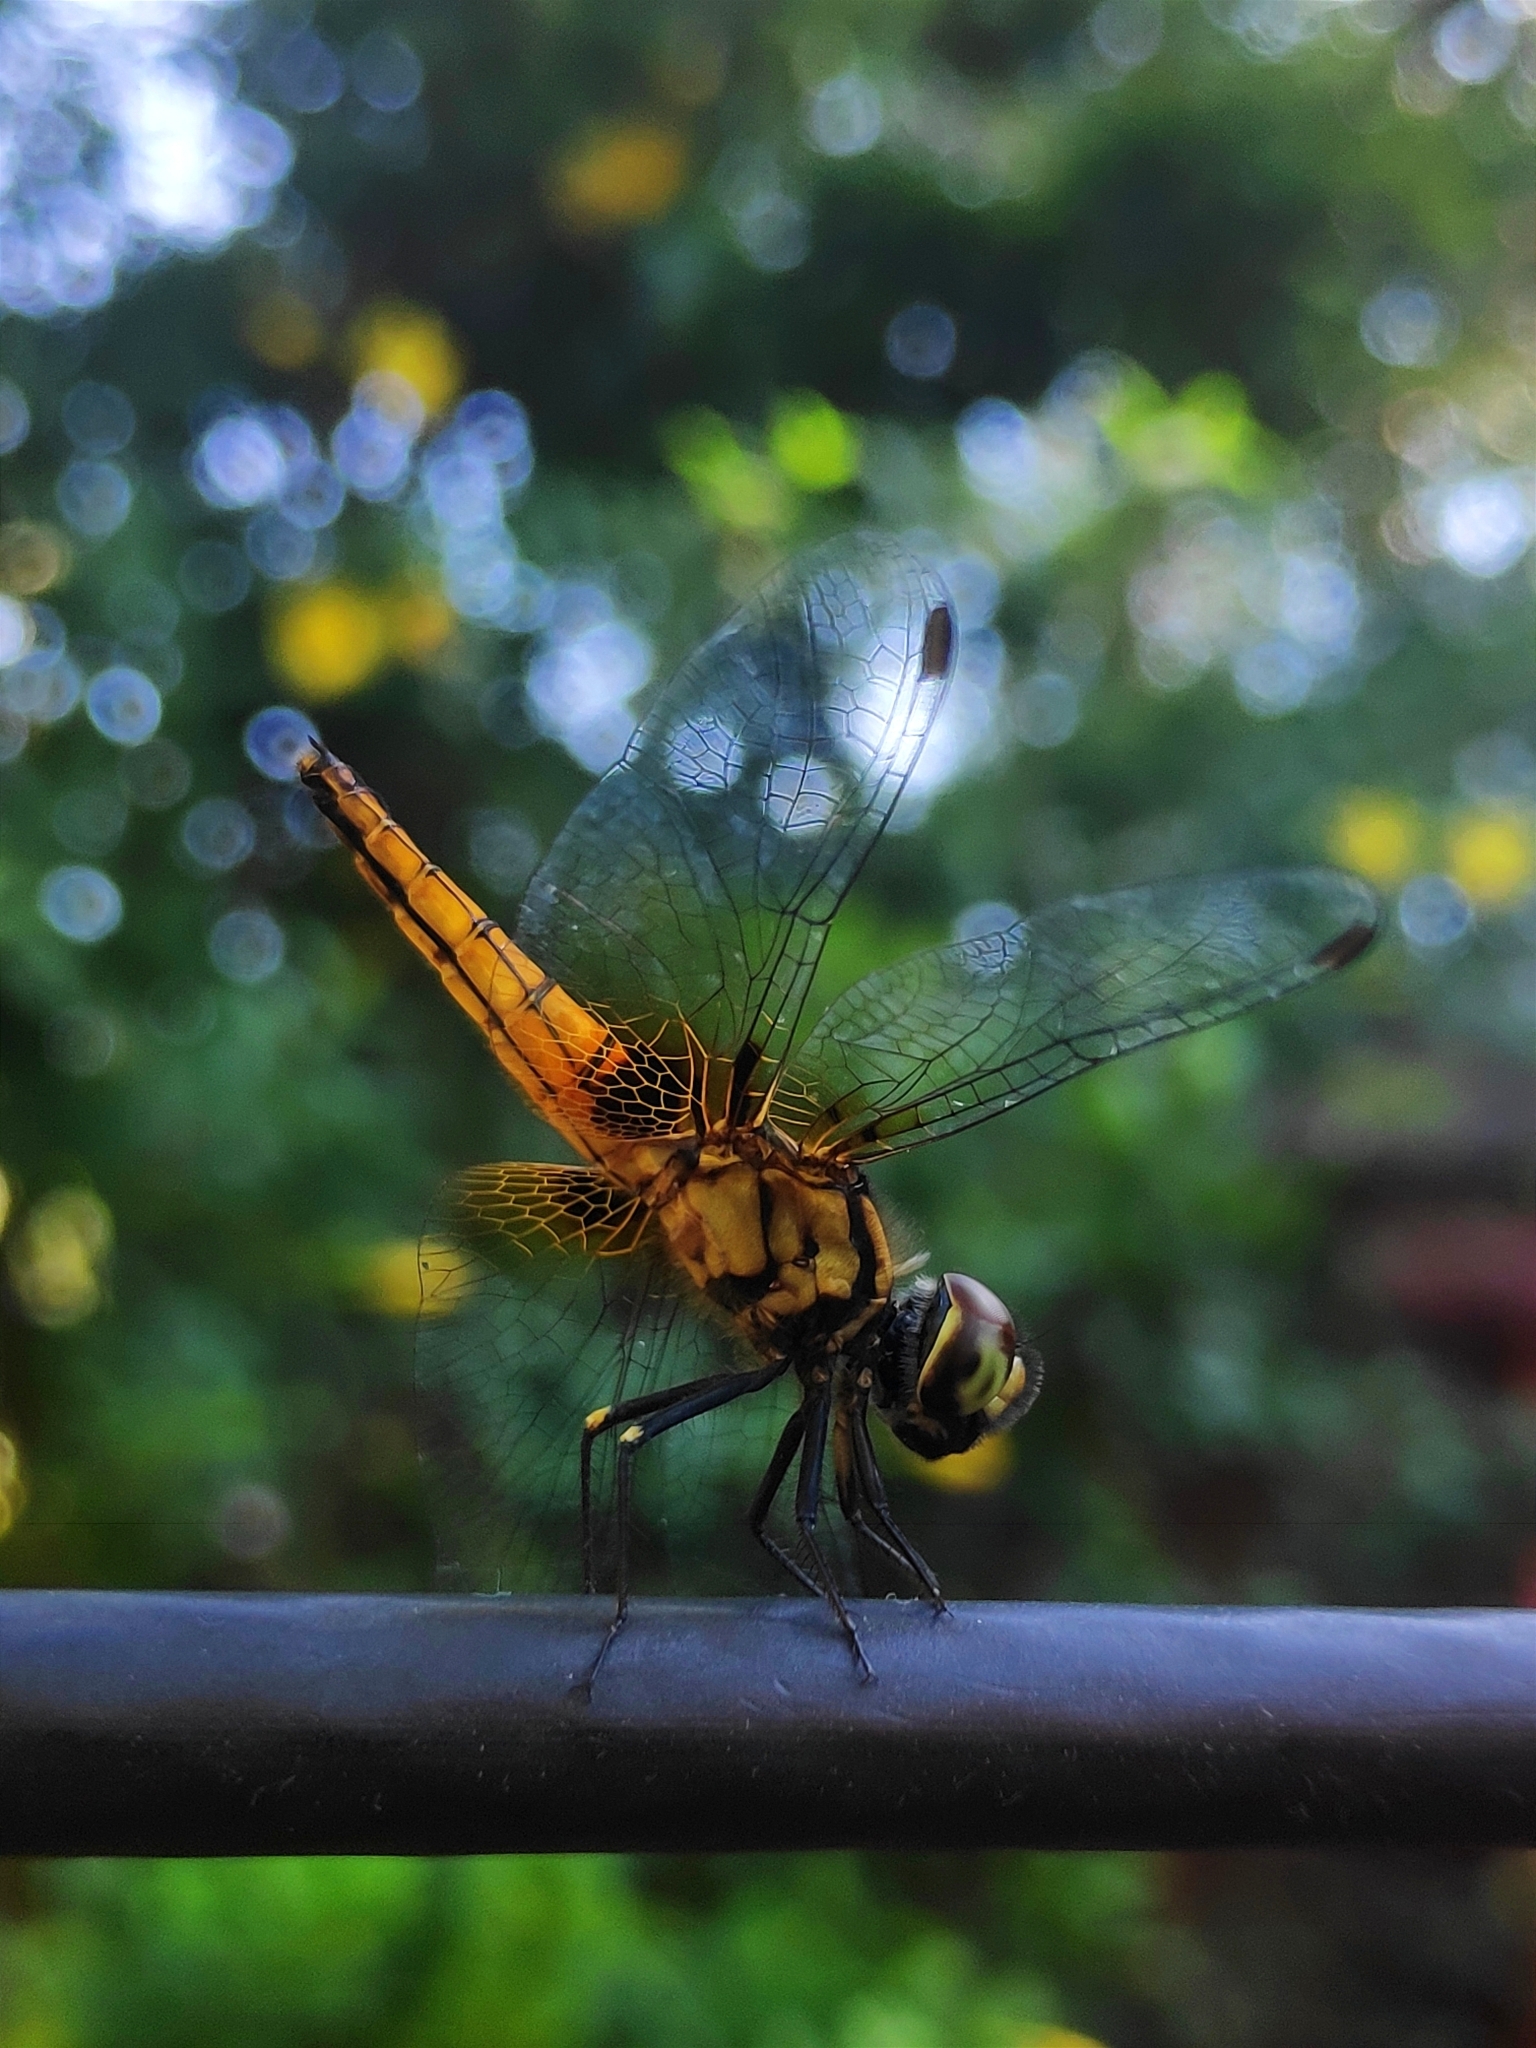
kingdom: Animalia
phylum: Arthropoda
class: Insecta
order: Odonata
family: Libellulidae
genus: Aethriamanta
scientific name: Aethriamanta brevipennis
